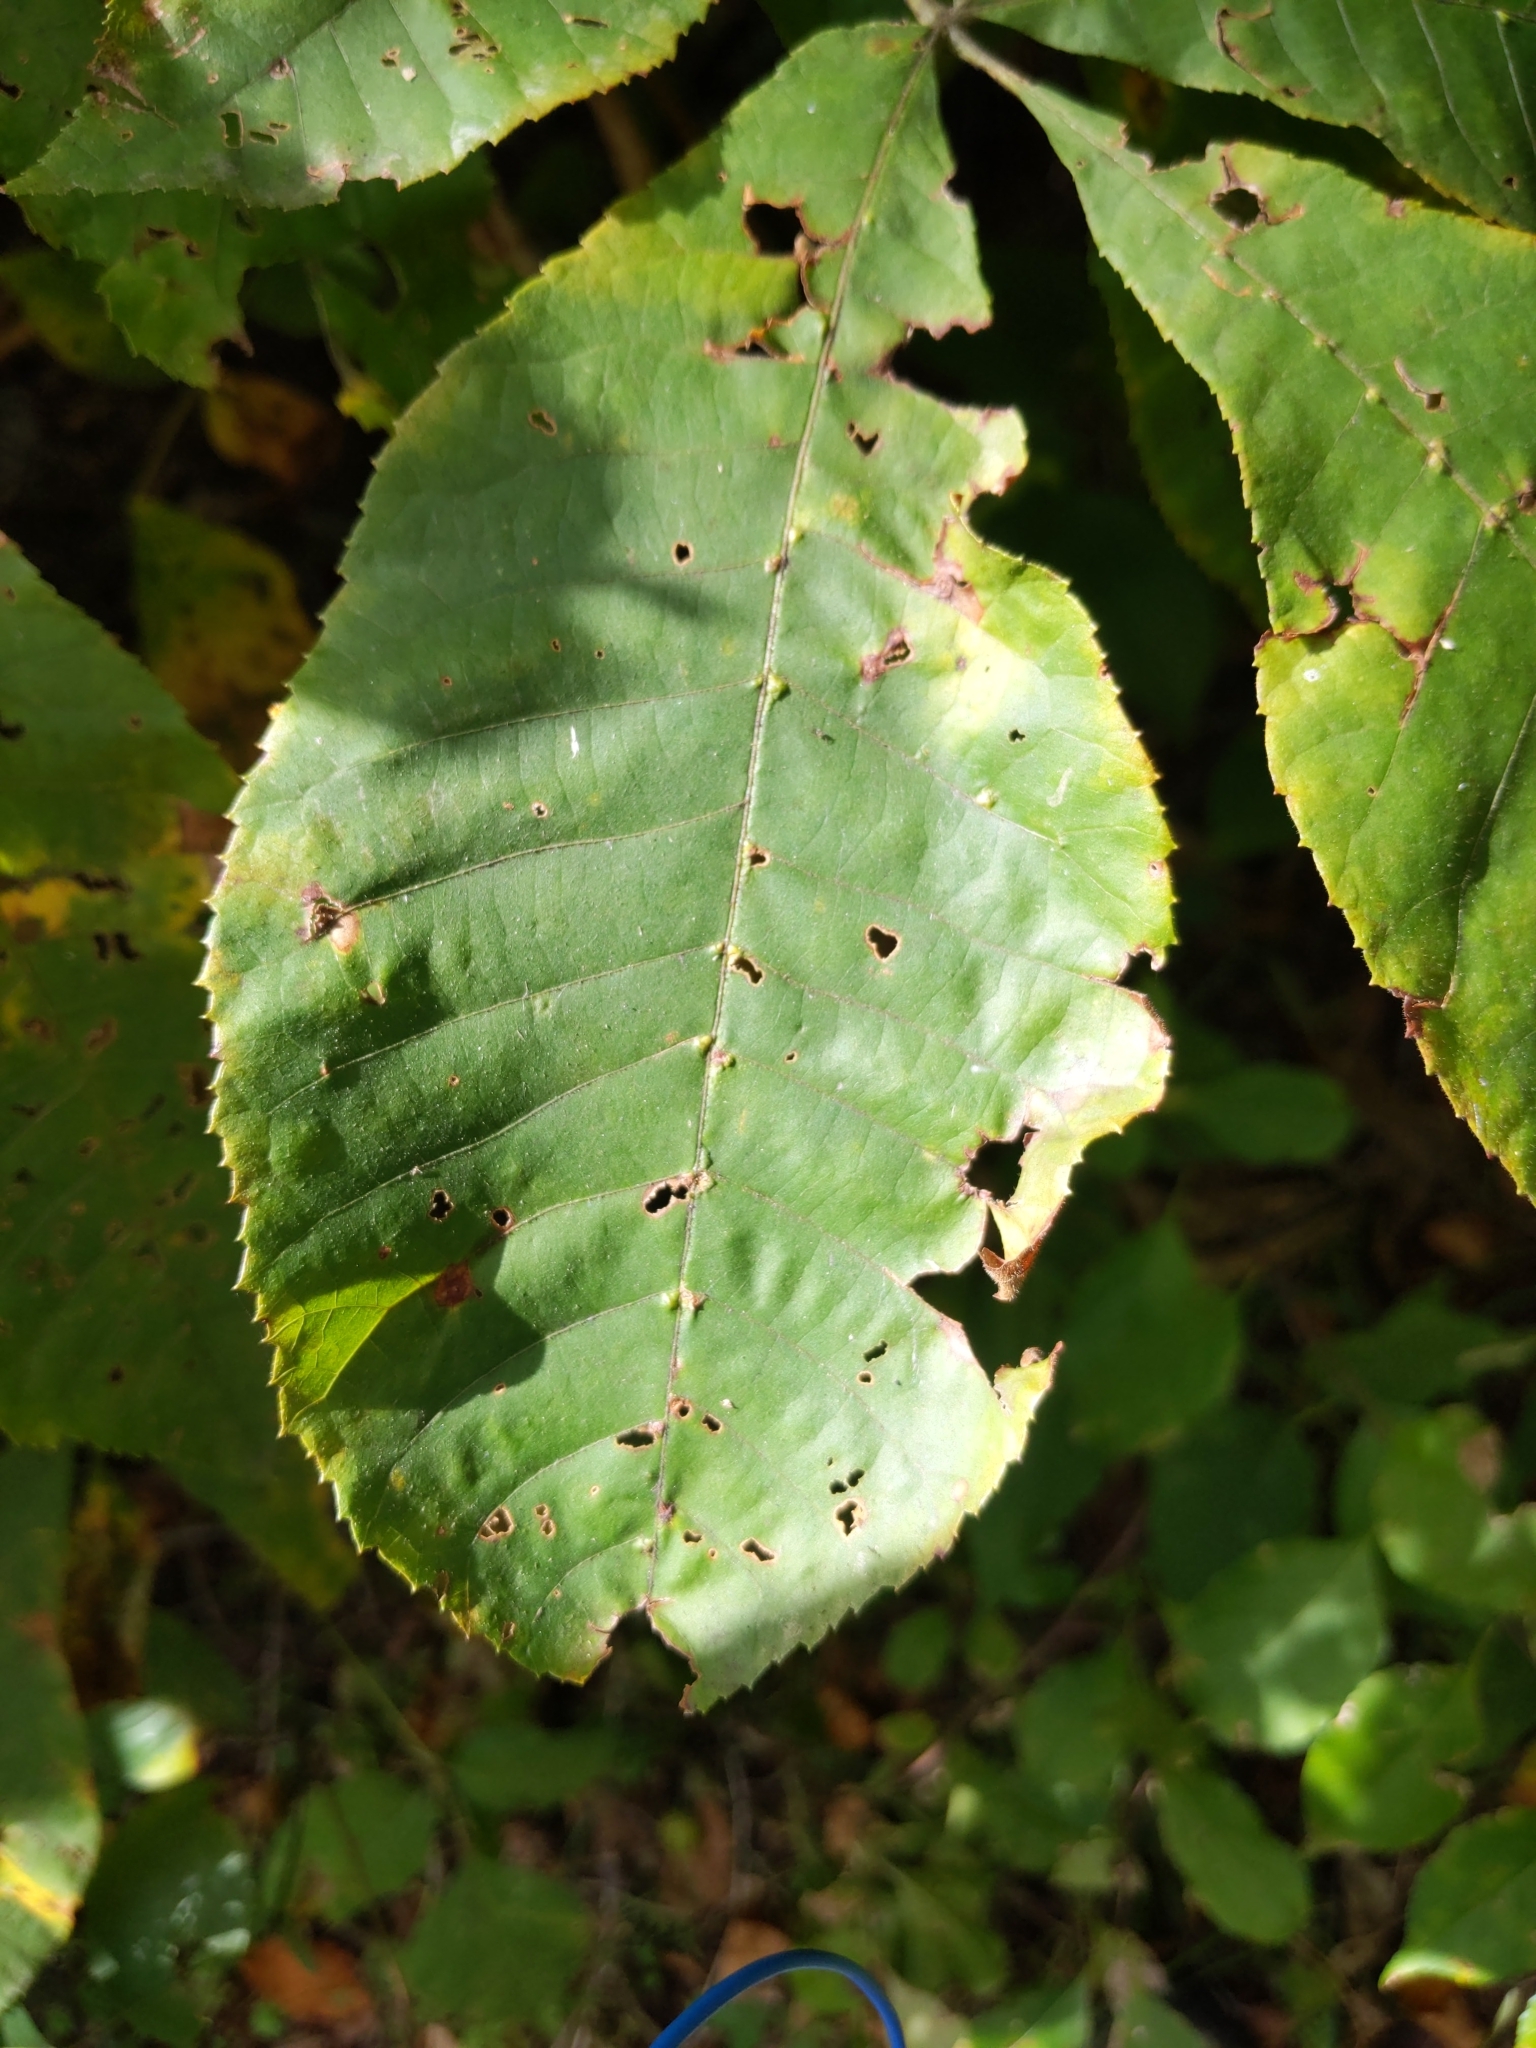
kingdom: Animalia
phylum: Arthropoda
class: Arachnida
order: Trombidiformes
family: Eriophyidae
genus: Aceria
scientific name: Aceria
